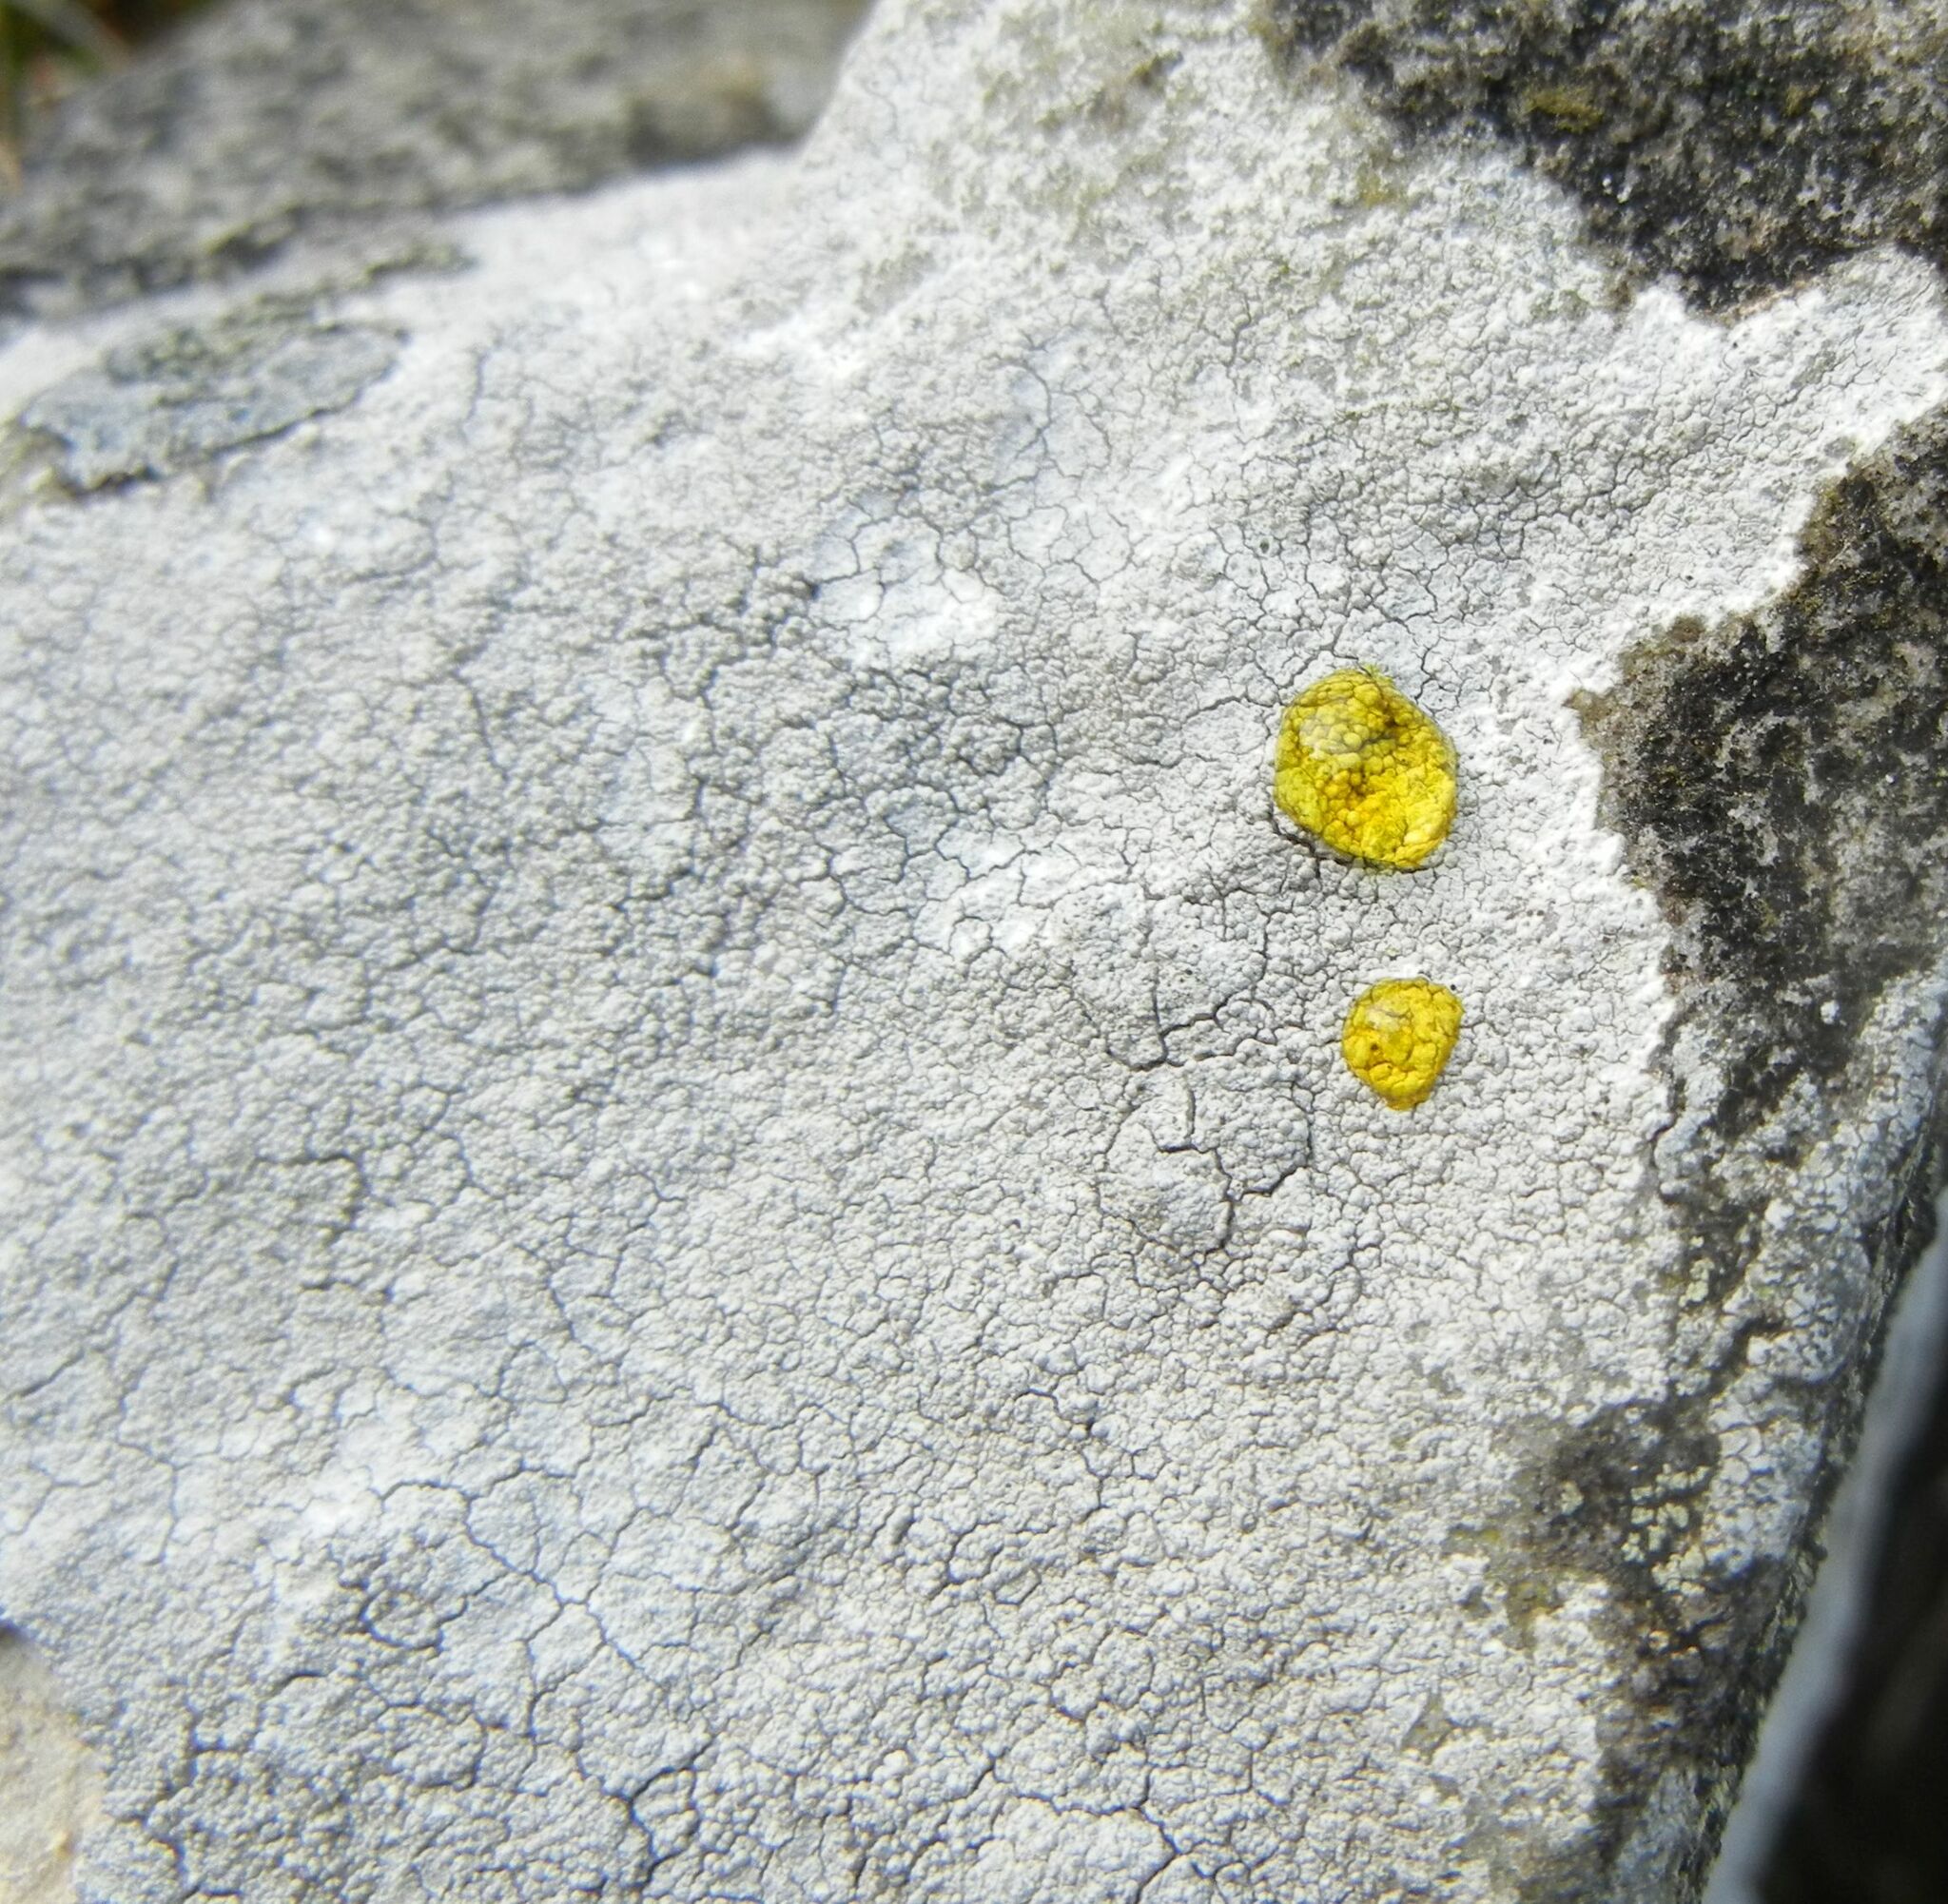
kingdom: Fungi
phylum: Ascomycota
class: Lecanoromycetes
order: Pertusariales
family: Pertusariaceae
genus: Lepra
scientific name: Lepra corallina
